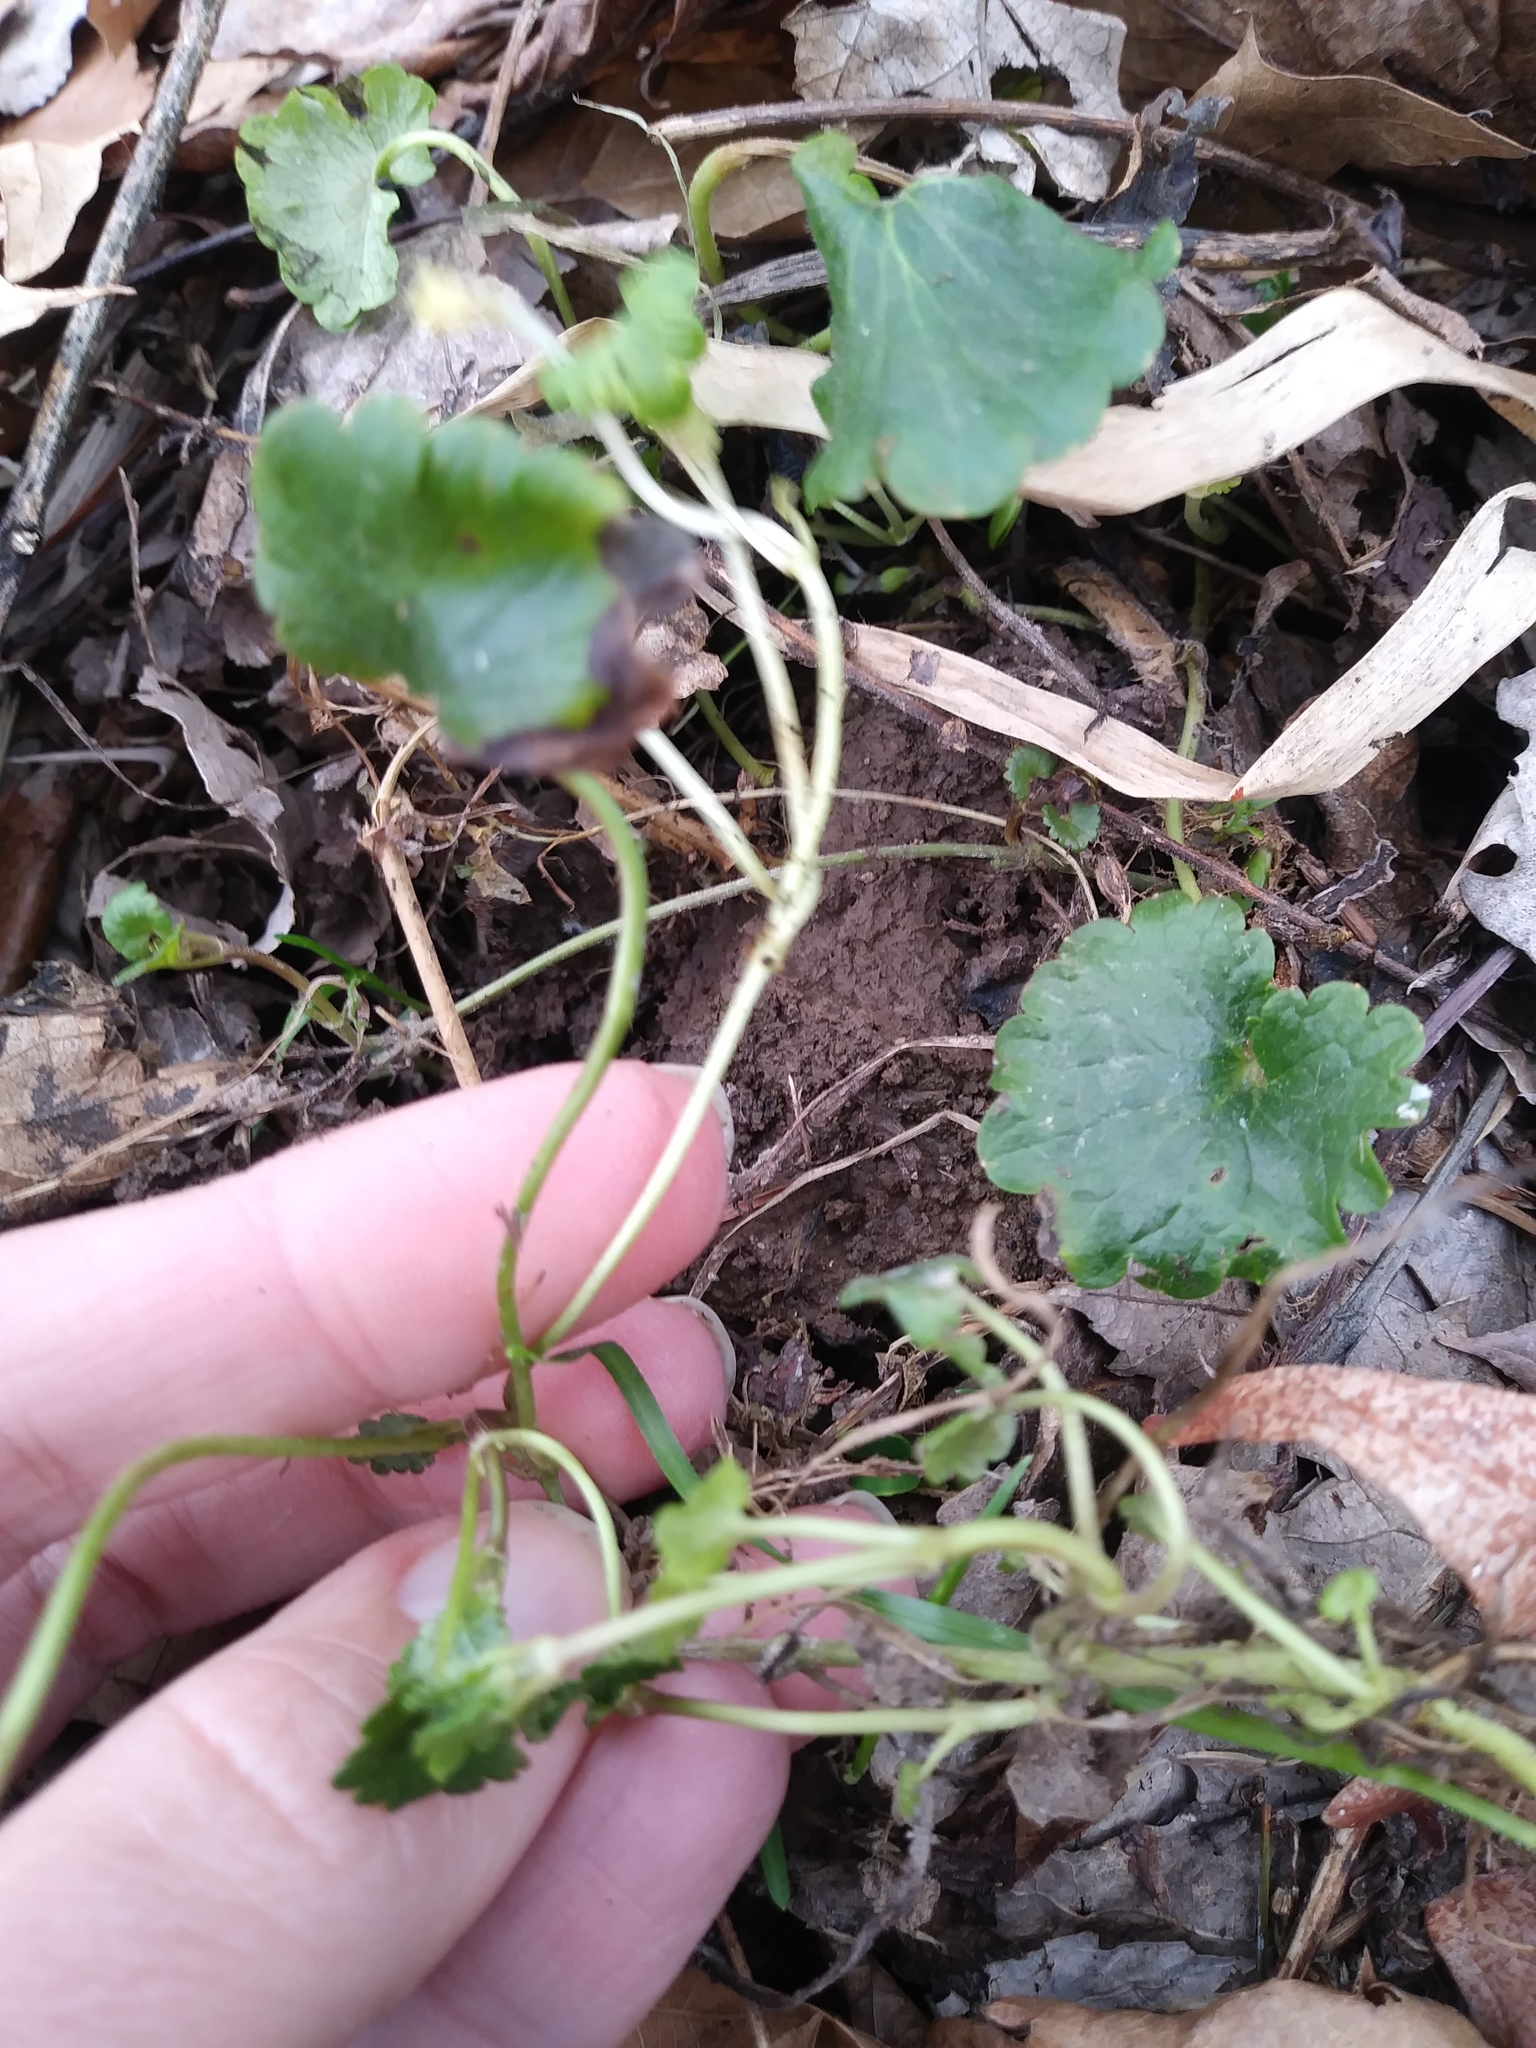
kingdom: Plantae
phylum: Tracheophyta
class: Magnoliopsida
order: Lamiales
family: Lamiaceae
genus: Glechoma
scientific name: Glechoma hederacea
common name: Ground ivy
